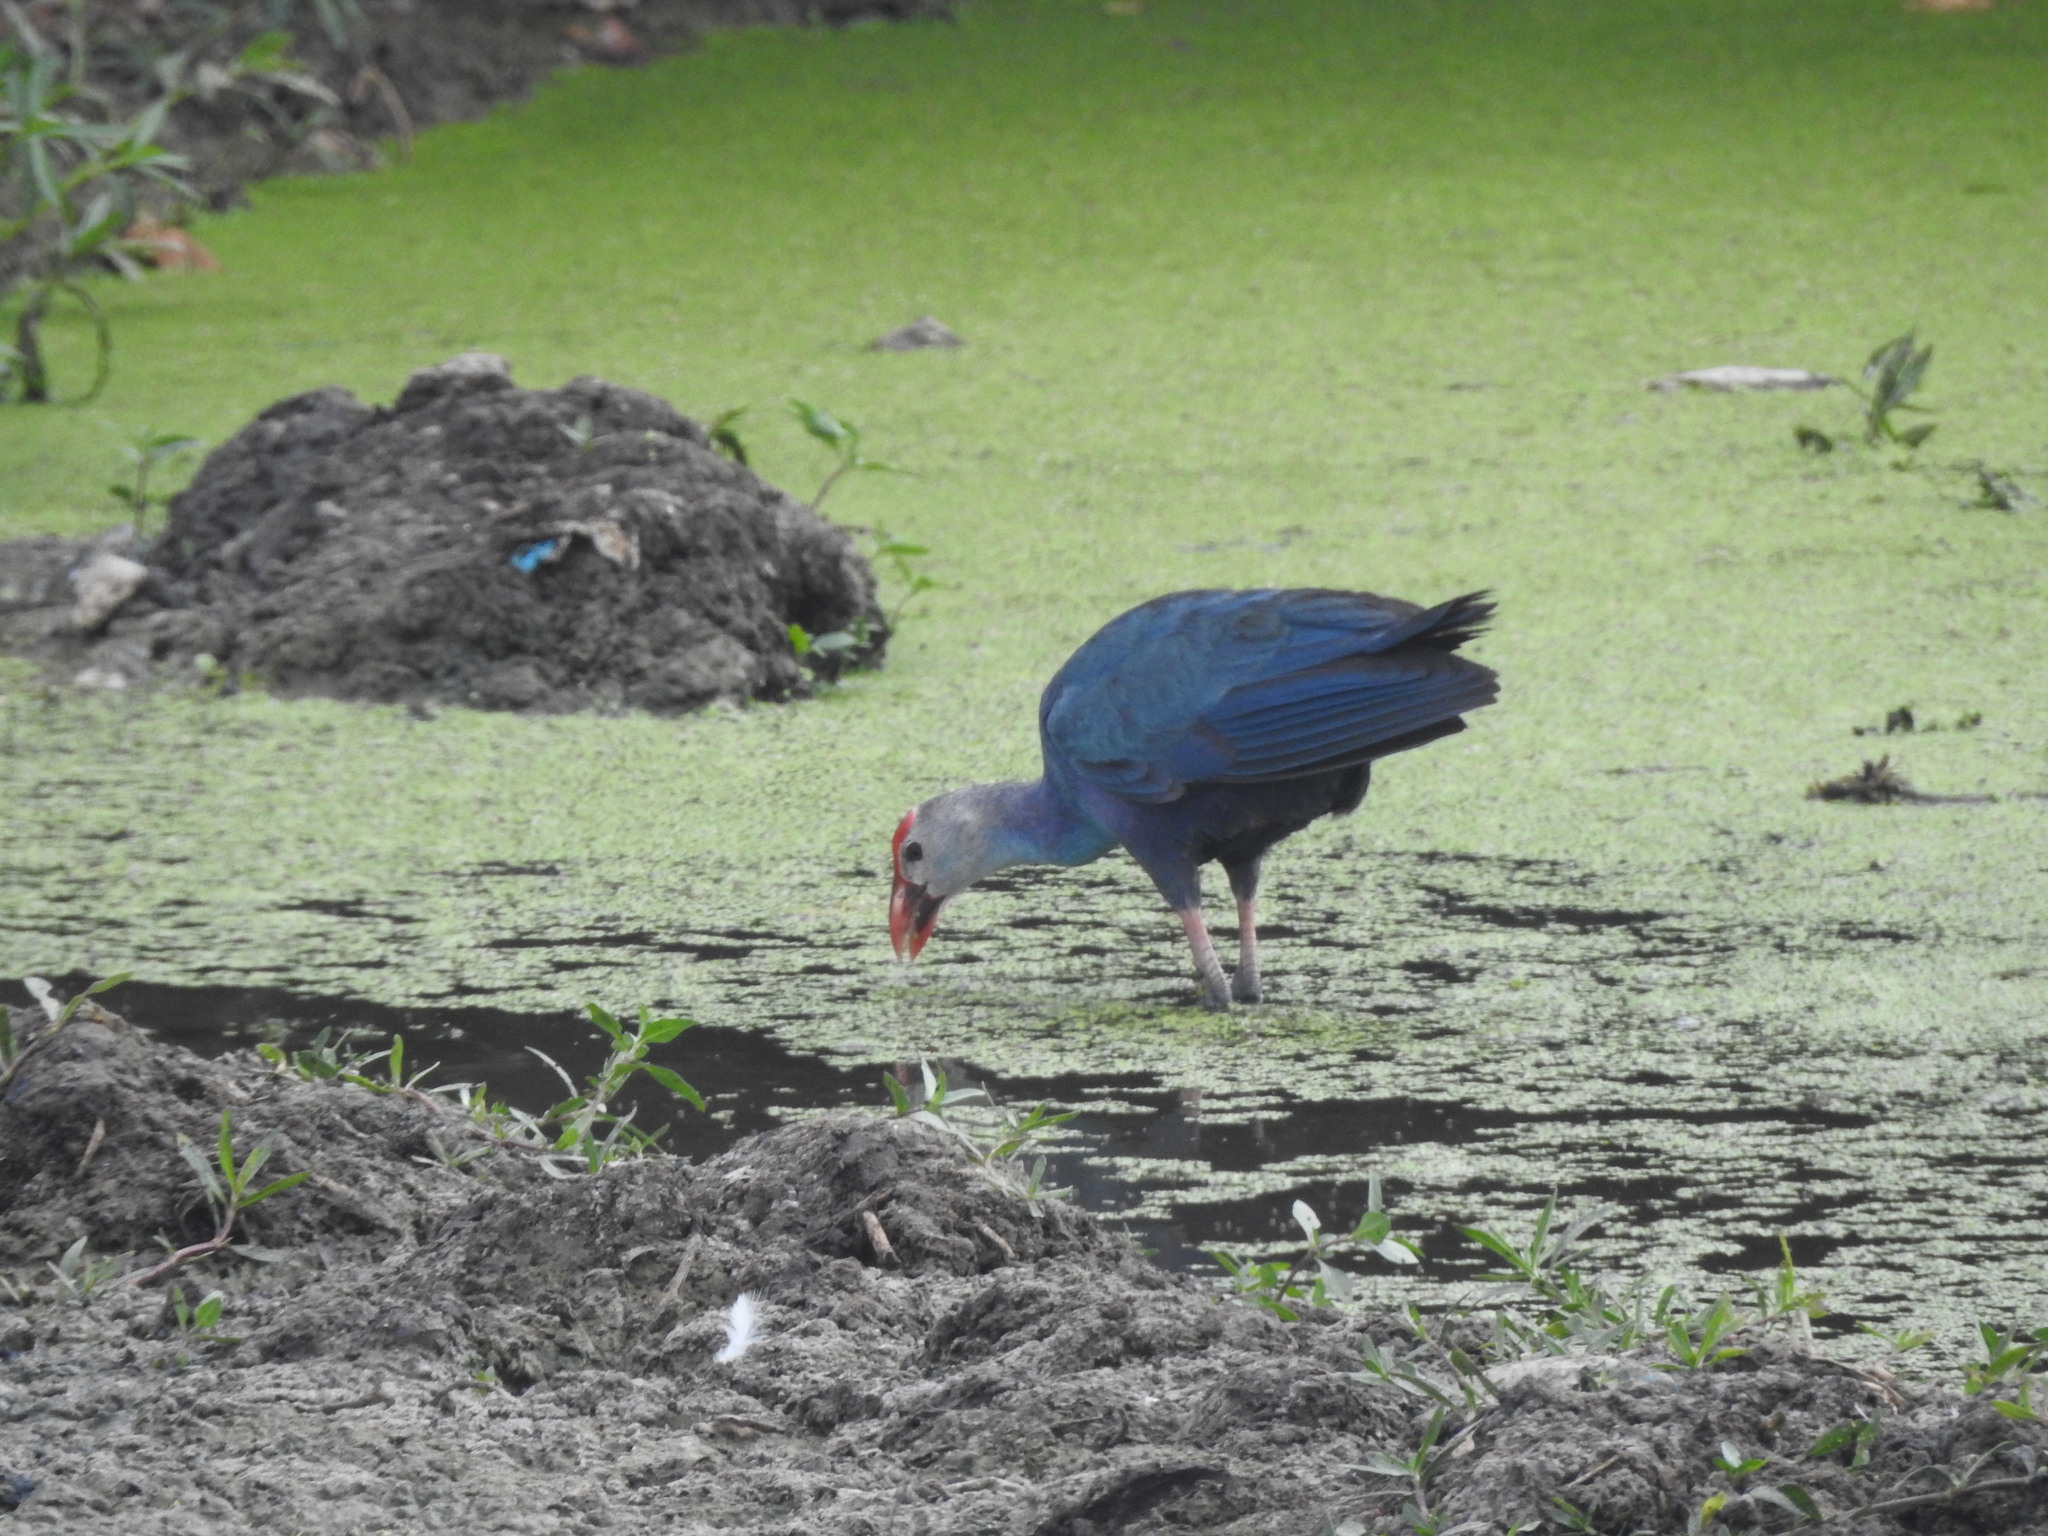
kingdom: Animalia
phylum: Chordata
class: Aves
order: Gruiformes
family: Rallidae
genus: Porphyrio
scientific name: Porphyrio porphyrio
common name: Purple swamphen
